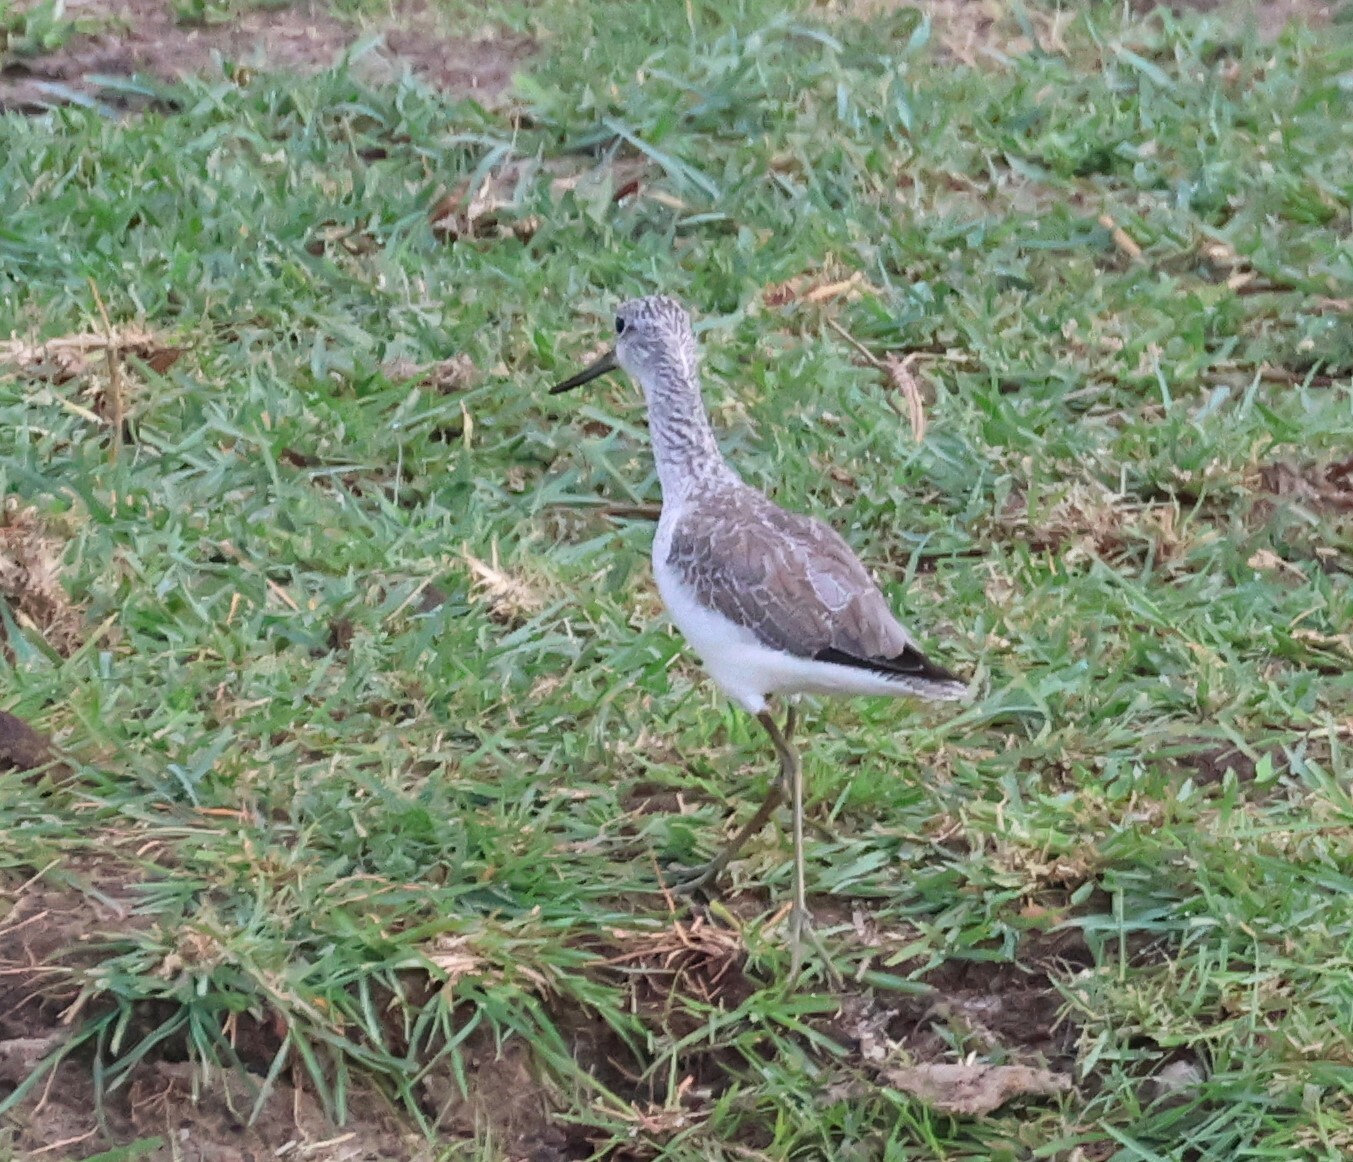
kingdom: Animalia
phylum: Chordata
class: Aves
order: Charadriiformes
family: Scolopacidae
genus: Tringa
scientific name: Tringa nebularia
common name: Common greenshank
